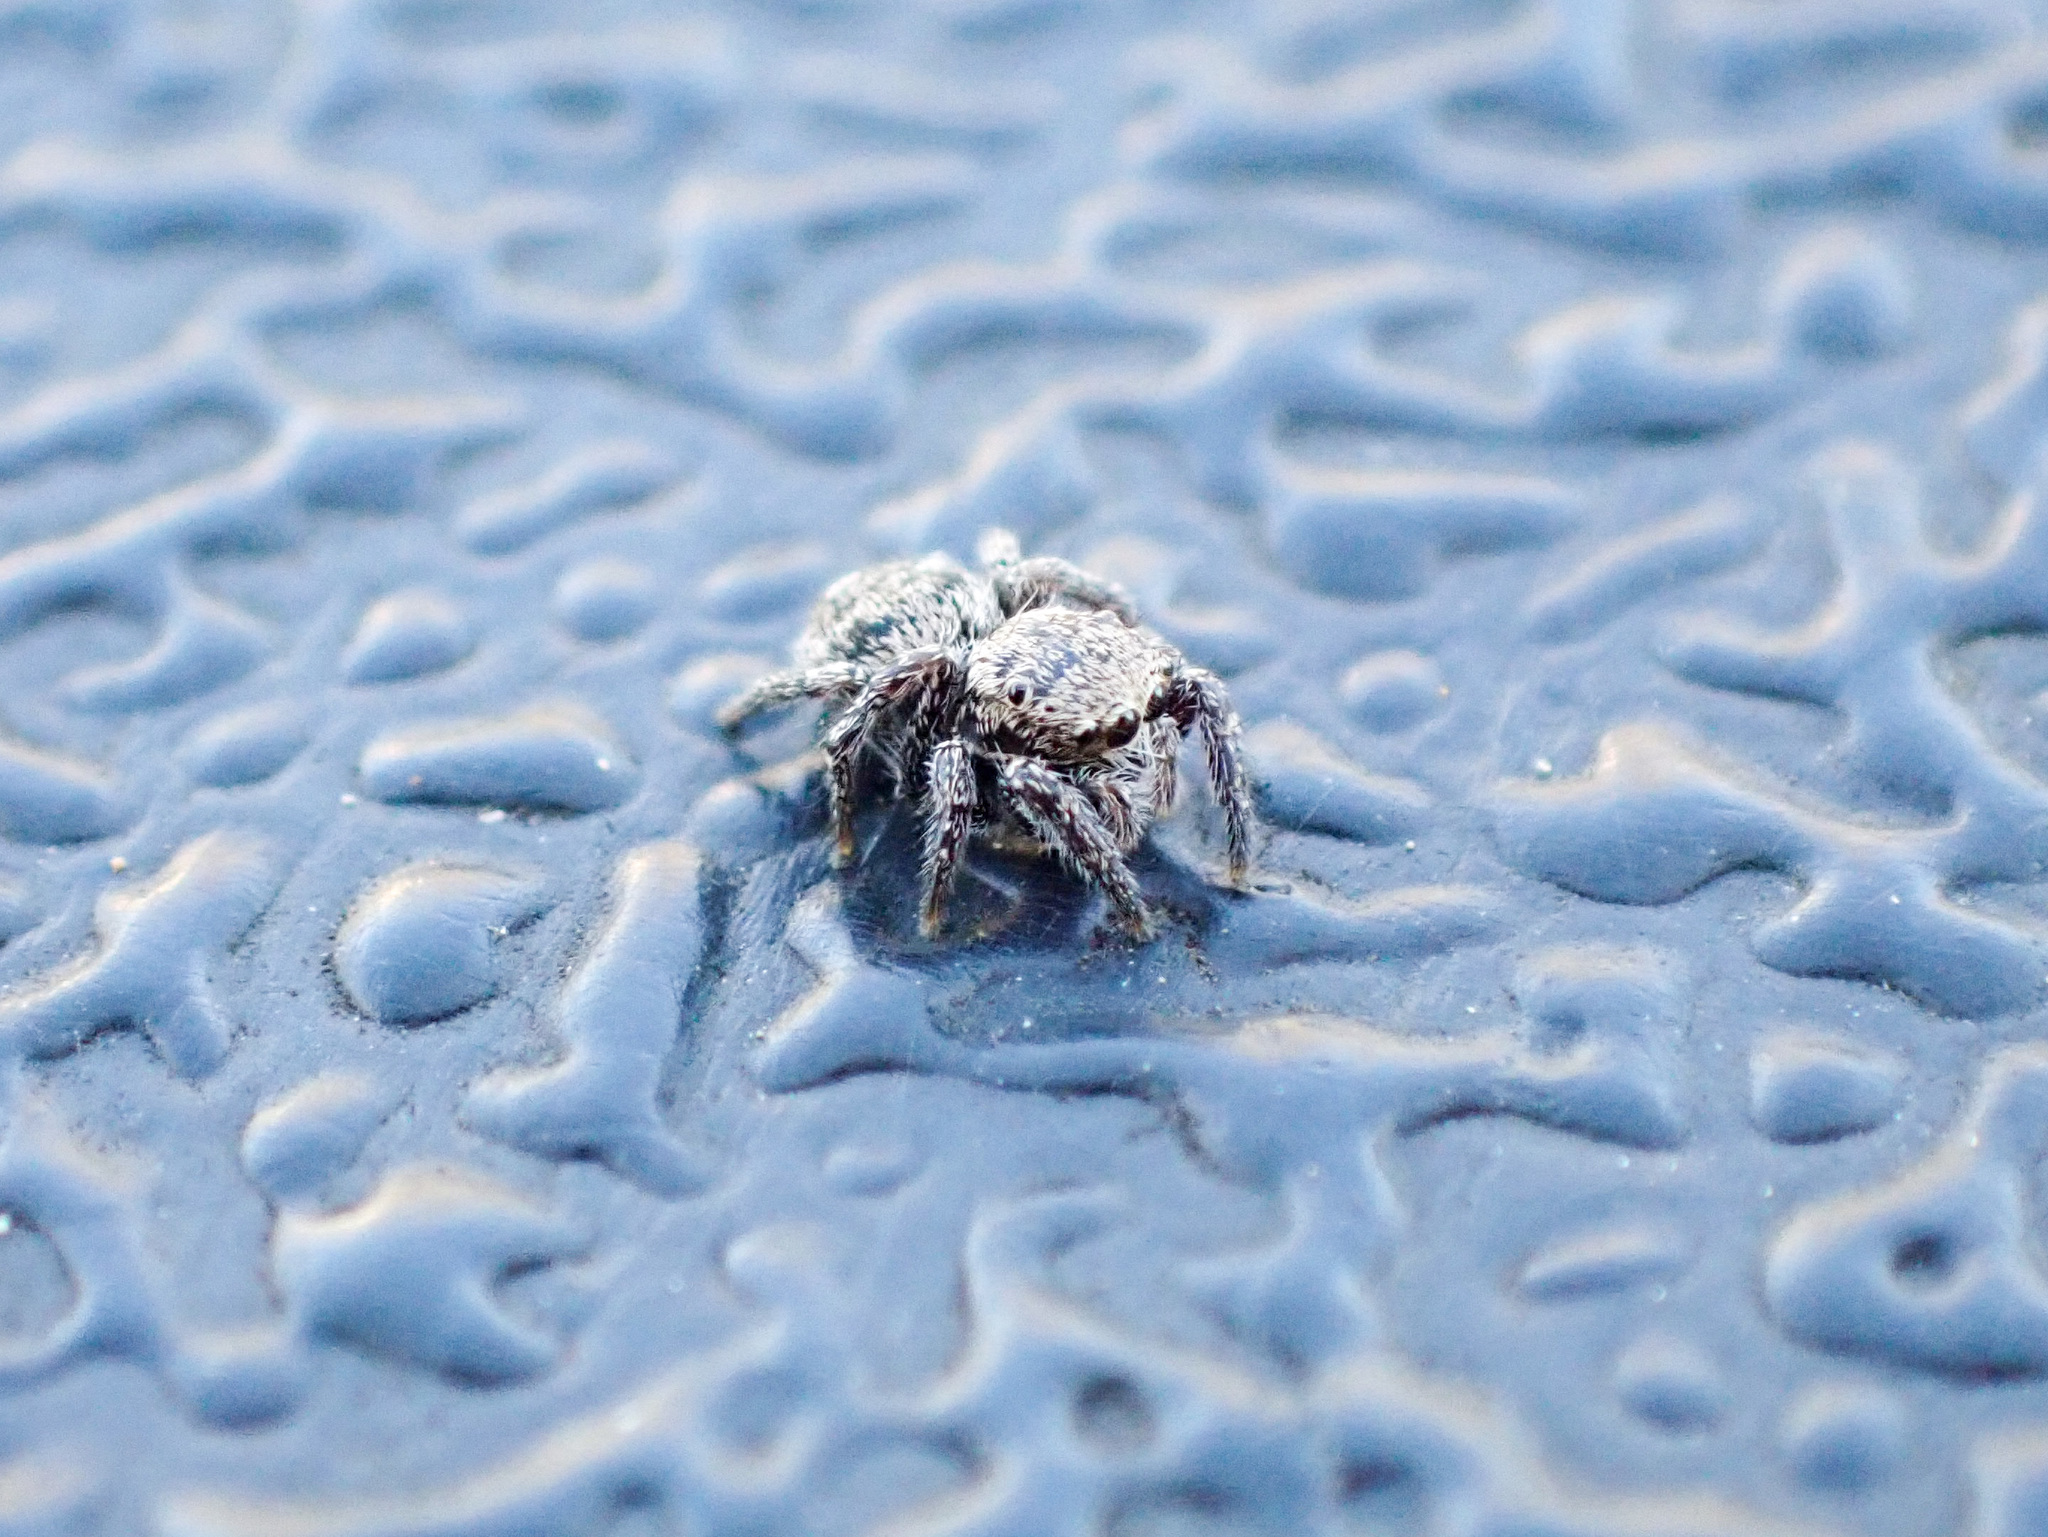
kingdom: Animalia
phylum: Arthropoda
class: Arachnida
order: Araneae
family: Salticidae
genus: Habronattus
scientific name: Habronattus
